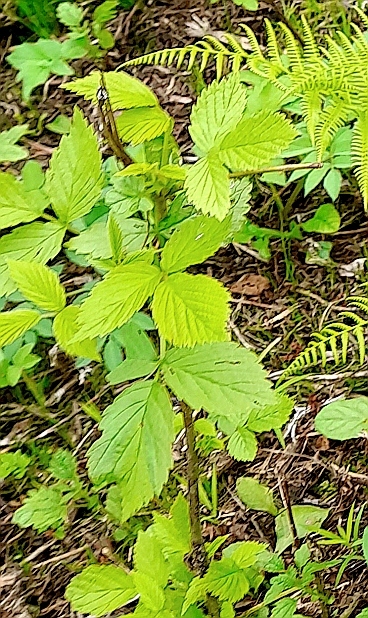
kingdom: Plantae
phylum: Tracheophyta
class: Magnoliopsida
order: Rosales
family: Rosaceae
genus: Rubus
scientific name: Rubus idaeus
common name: Raspberry
